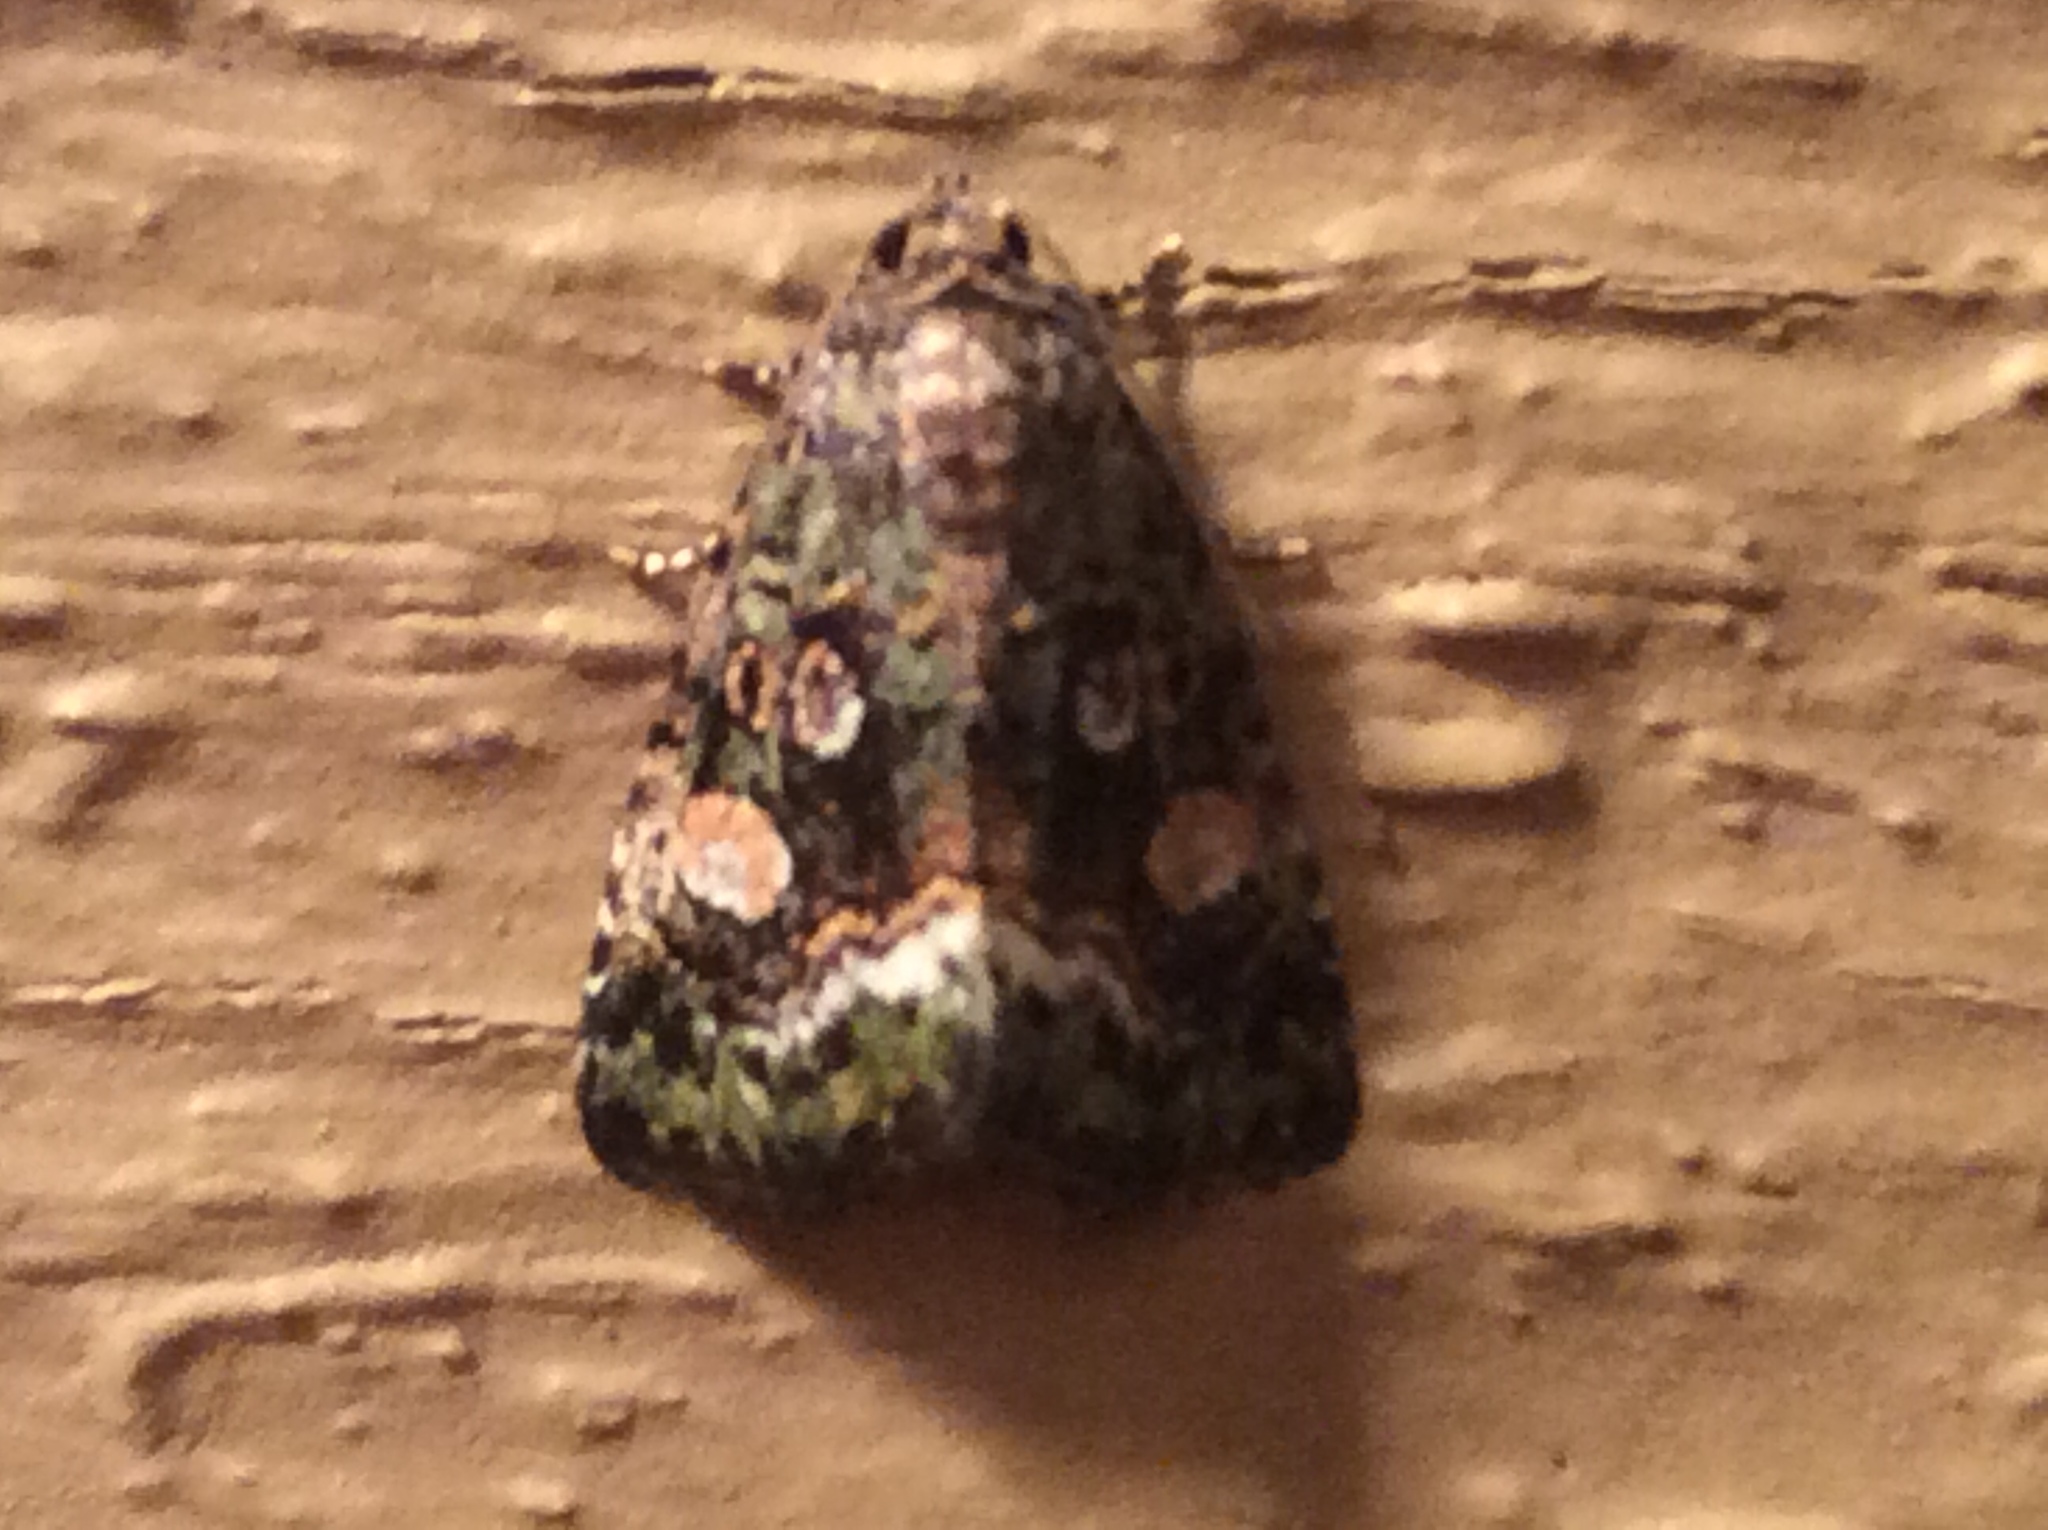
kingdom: Animalia
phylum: Arthropoda
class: Insecta
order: Lepidoptera
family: Noctuidae
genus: Lithacodia
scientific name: Lithacodia musta
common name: Small mossy glyph
